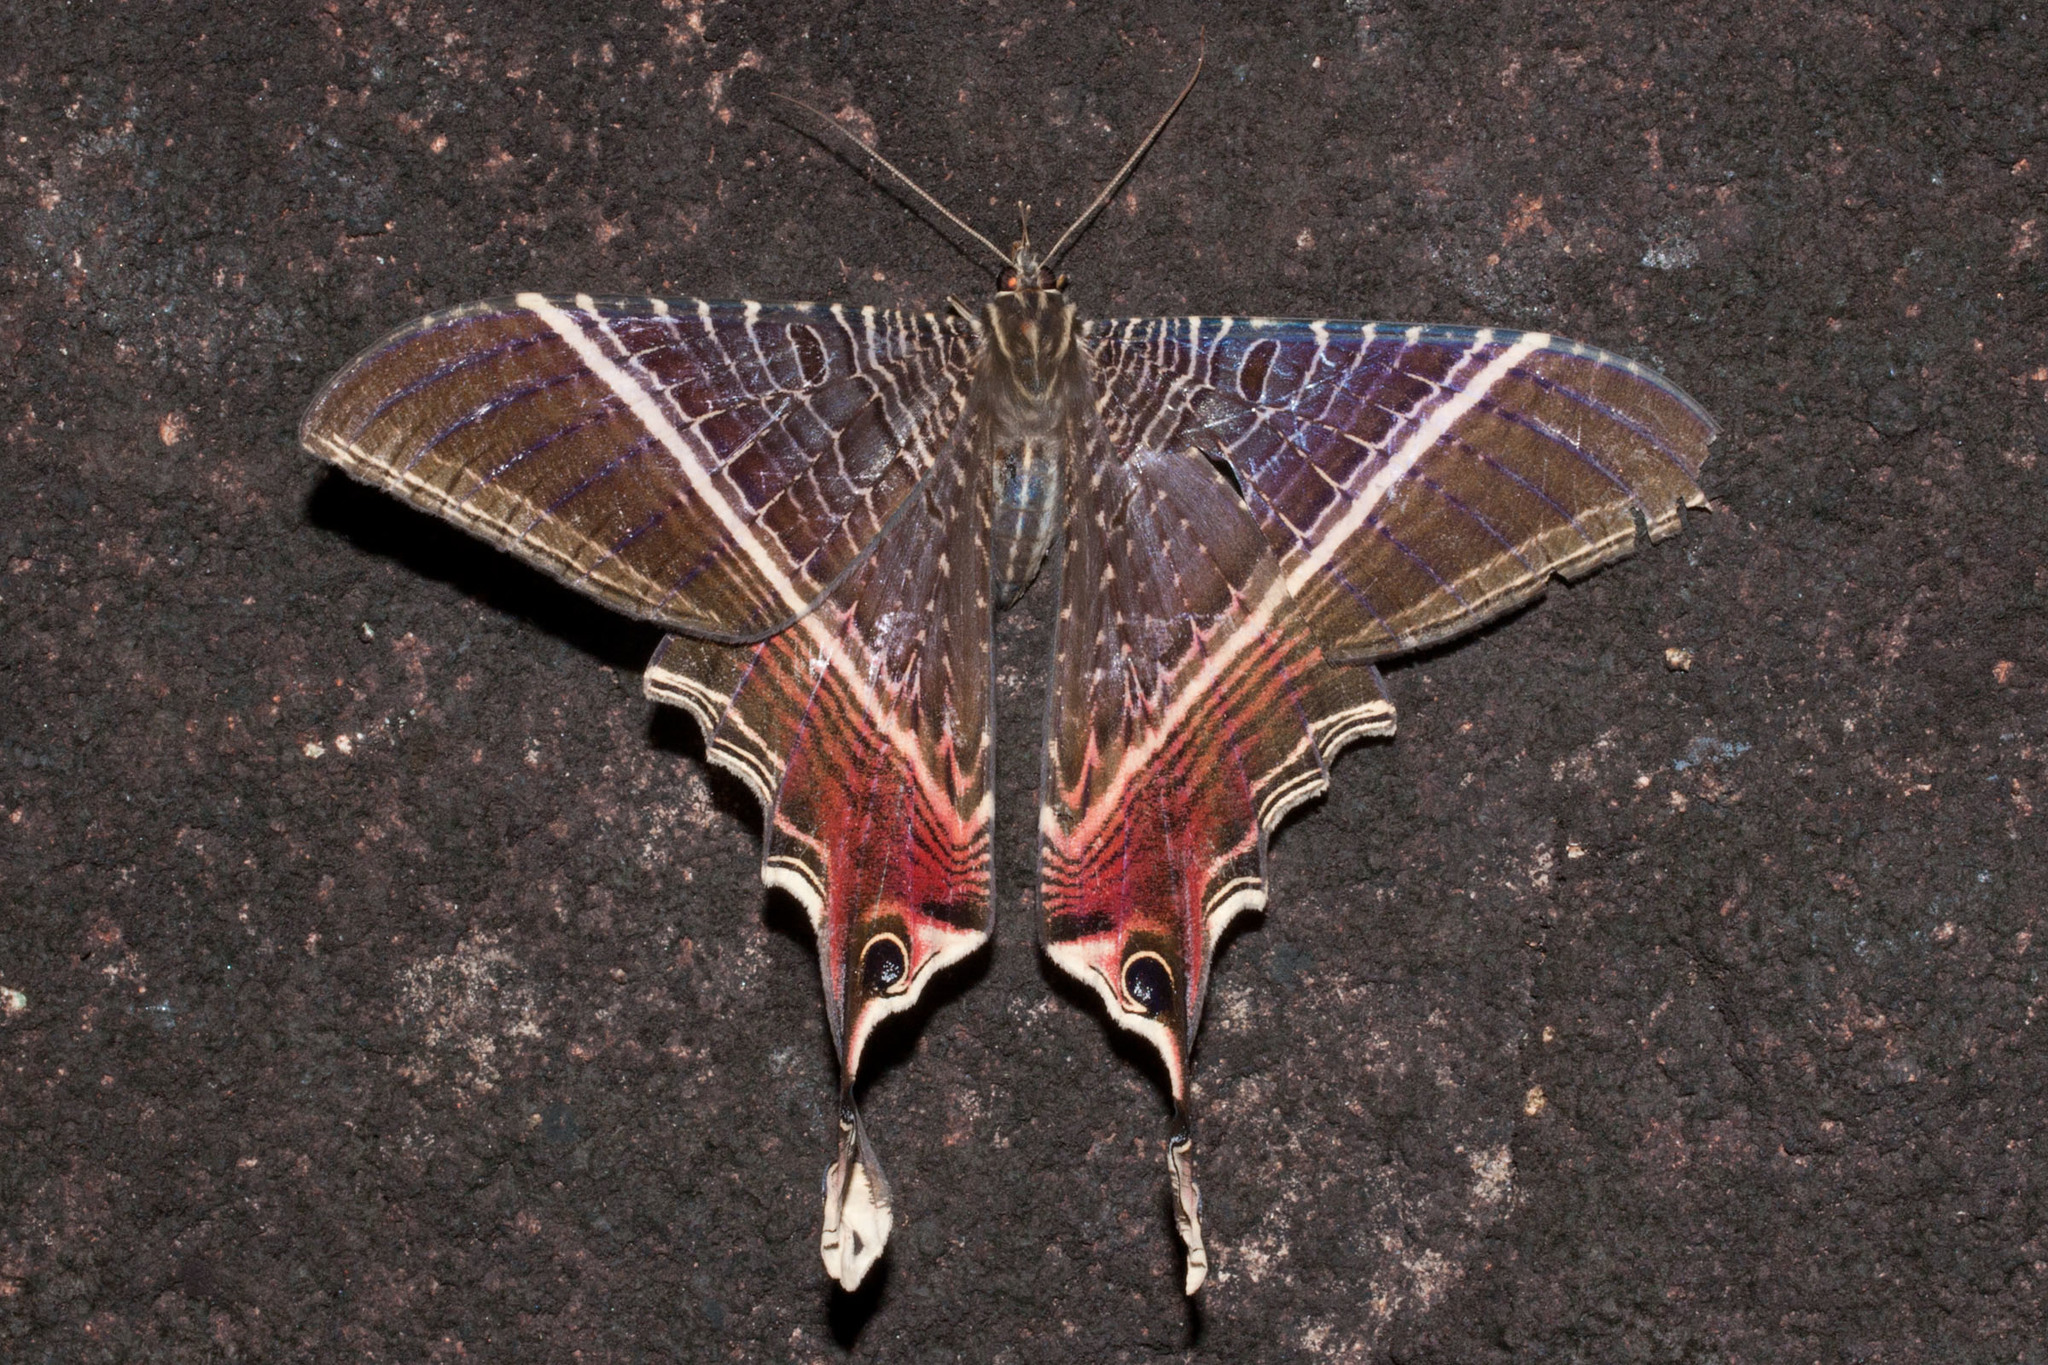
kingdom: Animalia
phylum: Arthropoda
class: Insecta
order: Lepidoptera
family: Sematuridae
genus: Nothus
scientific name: Nothus lunus
